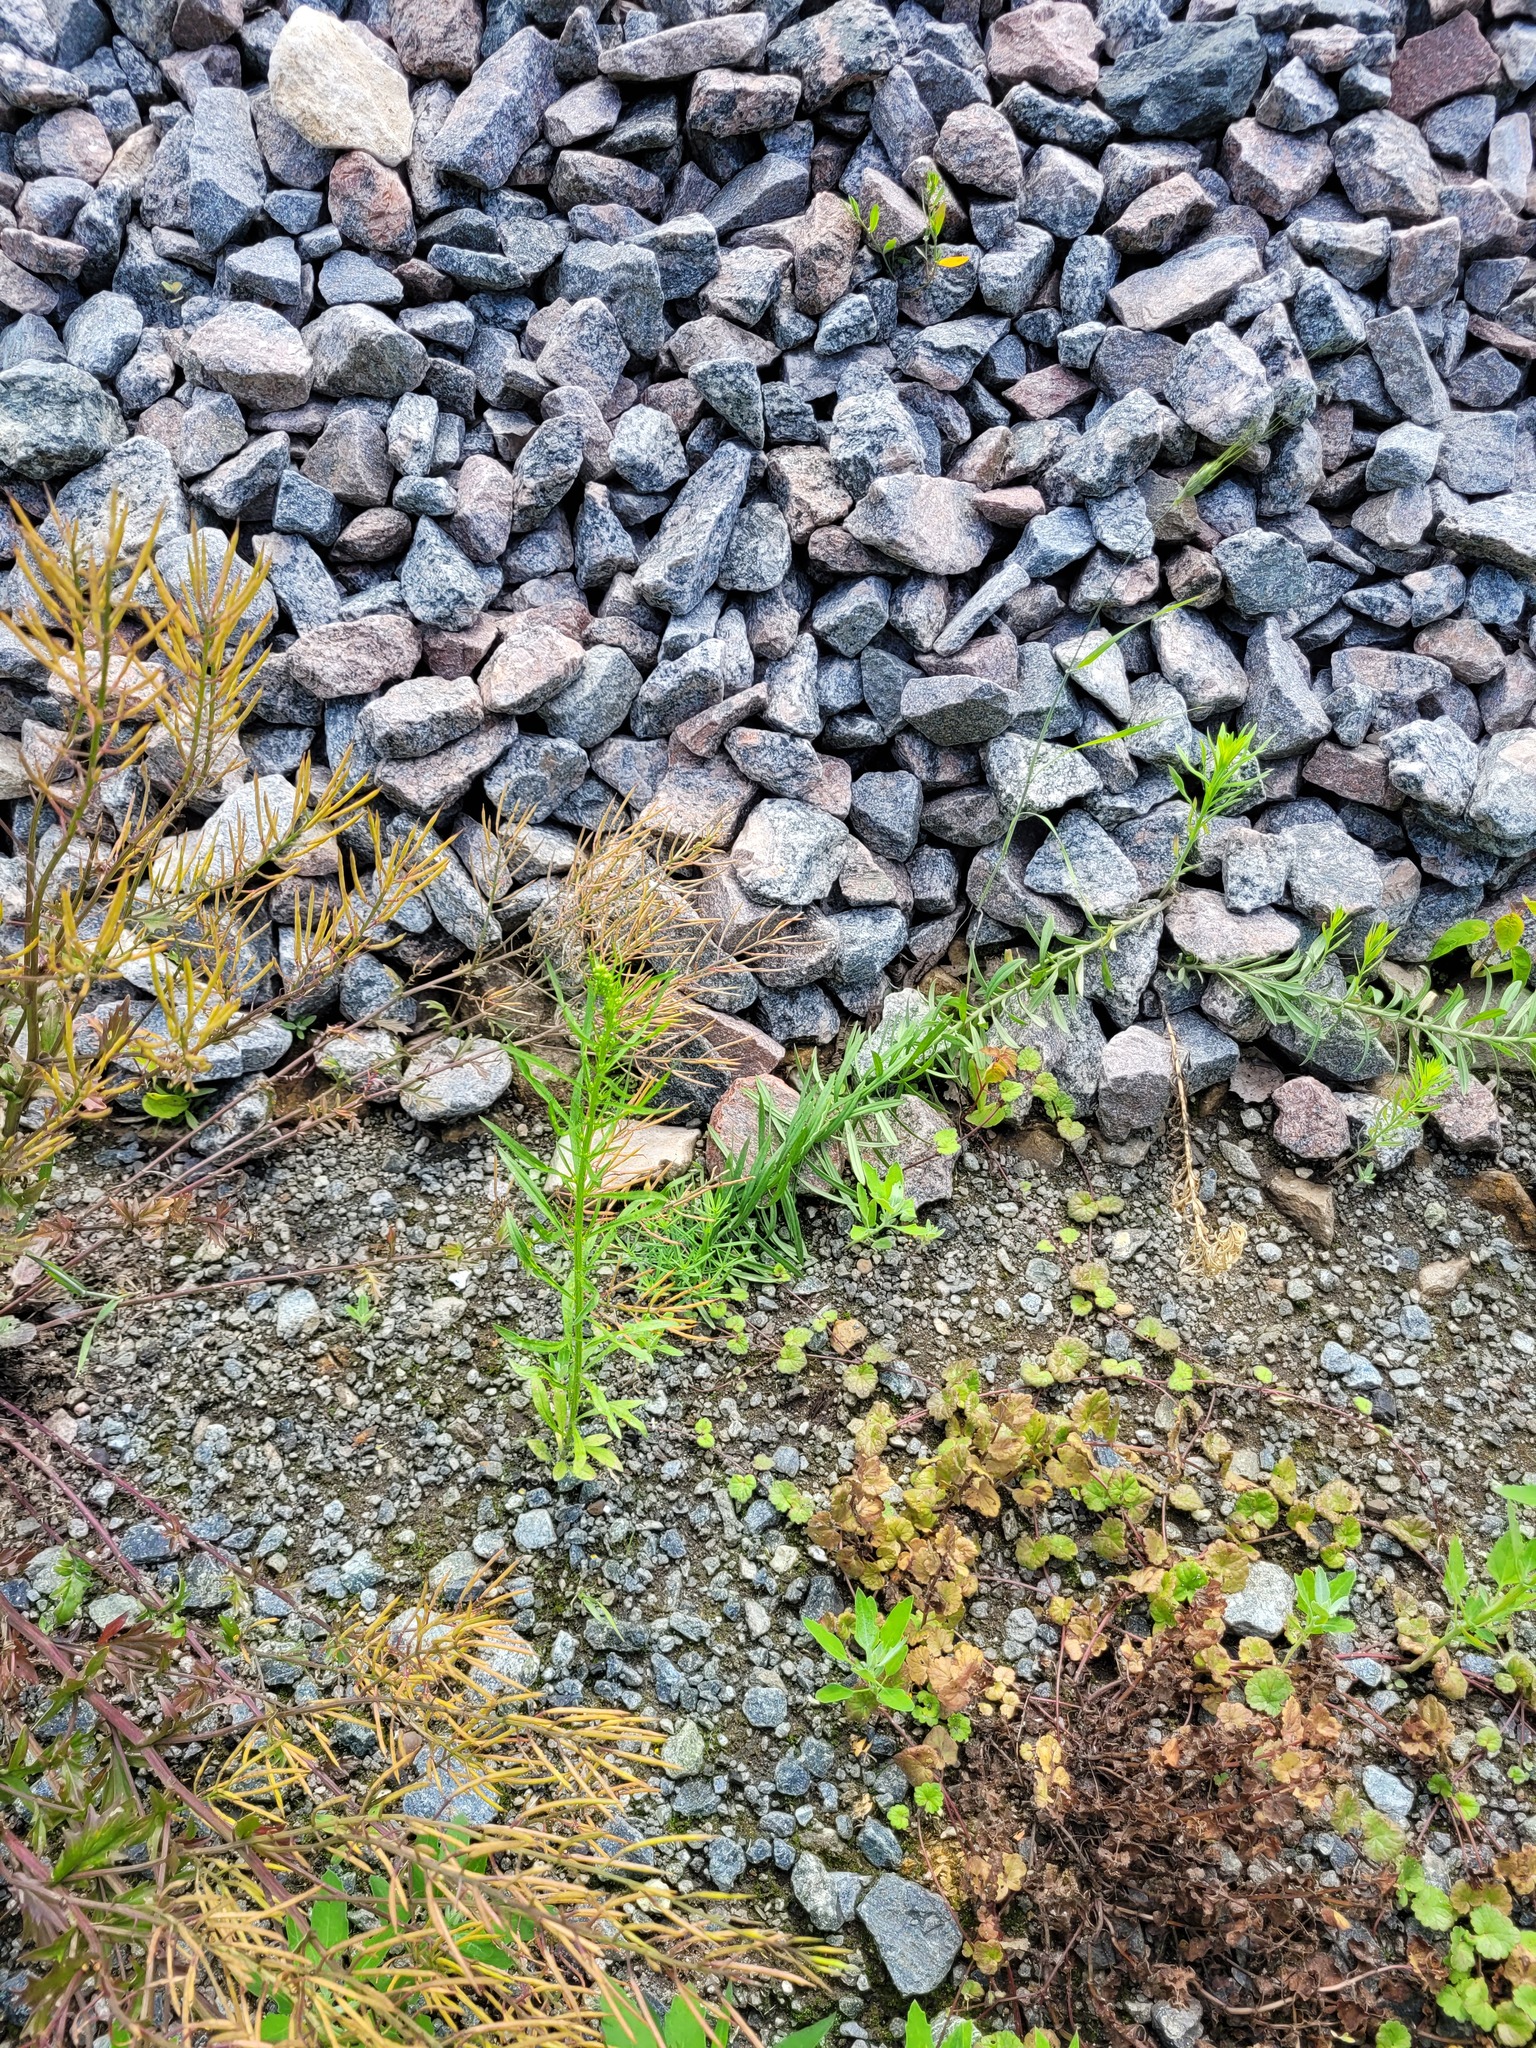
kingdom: Plantae
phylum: Tracheophyta
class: Magnoliopsida
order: Asterales
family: Asteraceae
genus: Erigeron
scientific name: Erigeron canadensis
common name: Canadian fleabane
